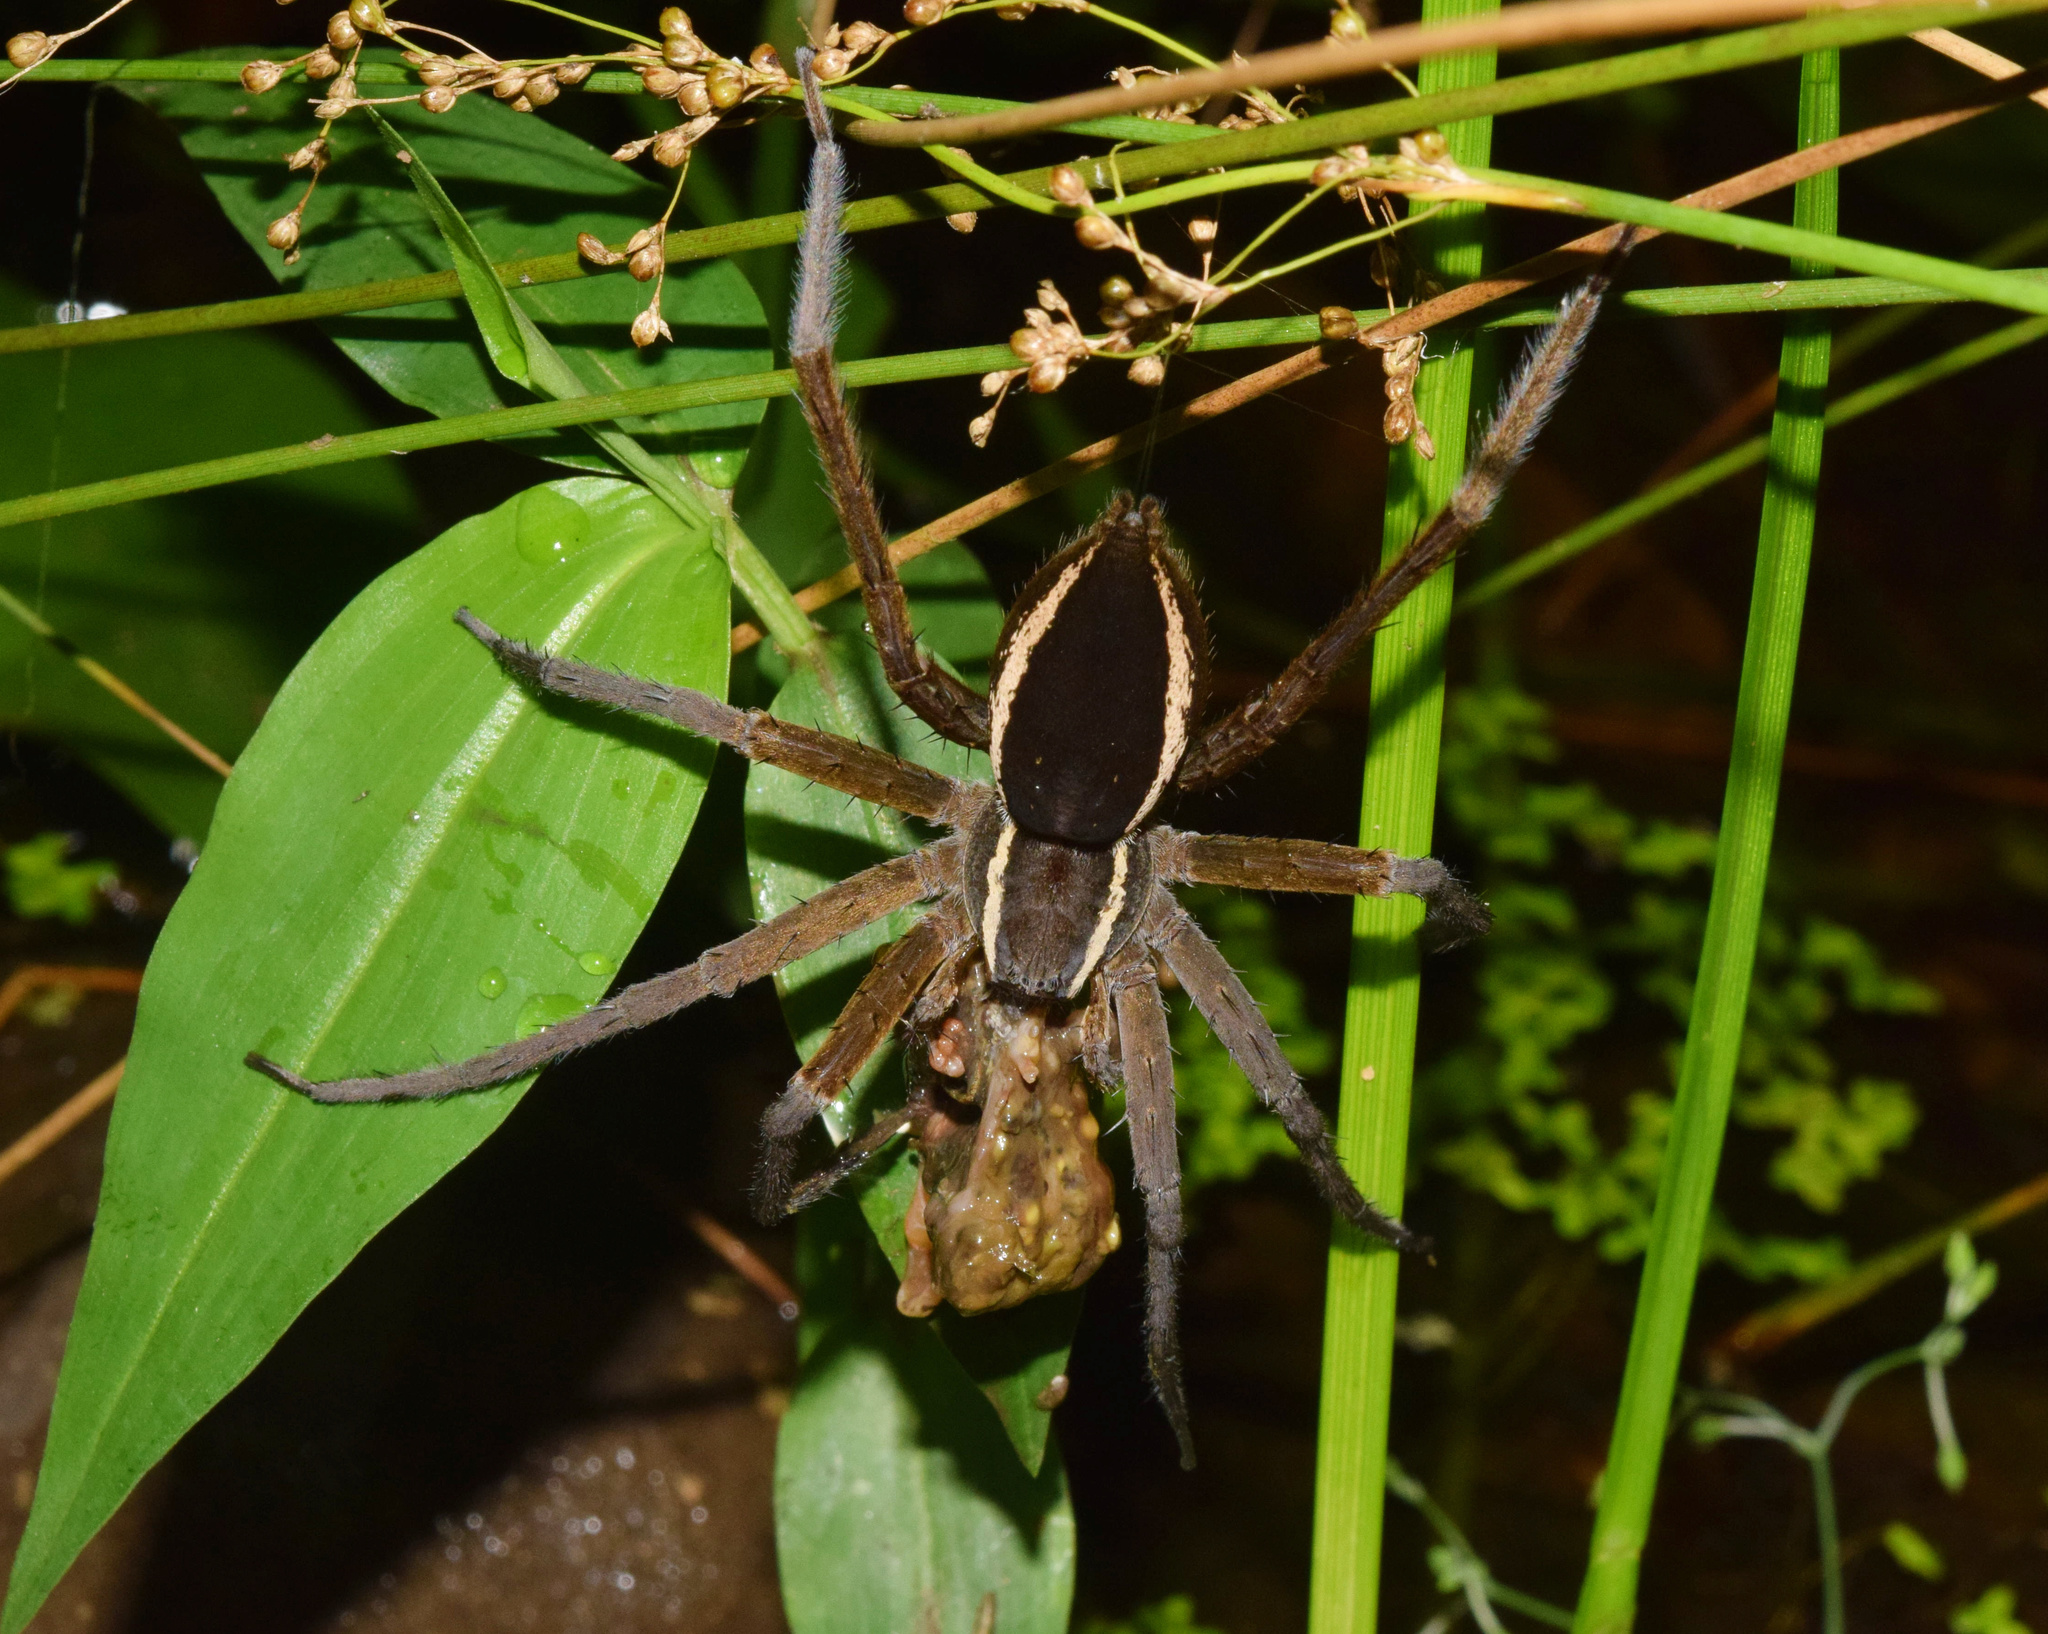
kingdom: Animalia
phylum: Chordata
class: Amphibia
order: Anura
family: Hyperoliidae
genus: Hyperolius
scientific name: Hyperolius marmoratus
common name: Painted reed frog
